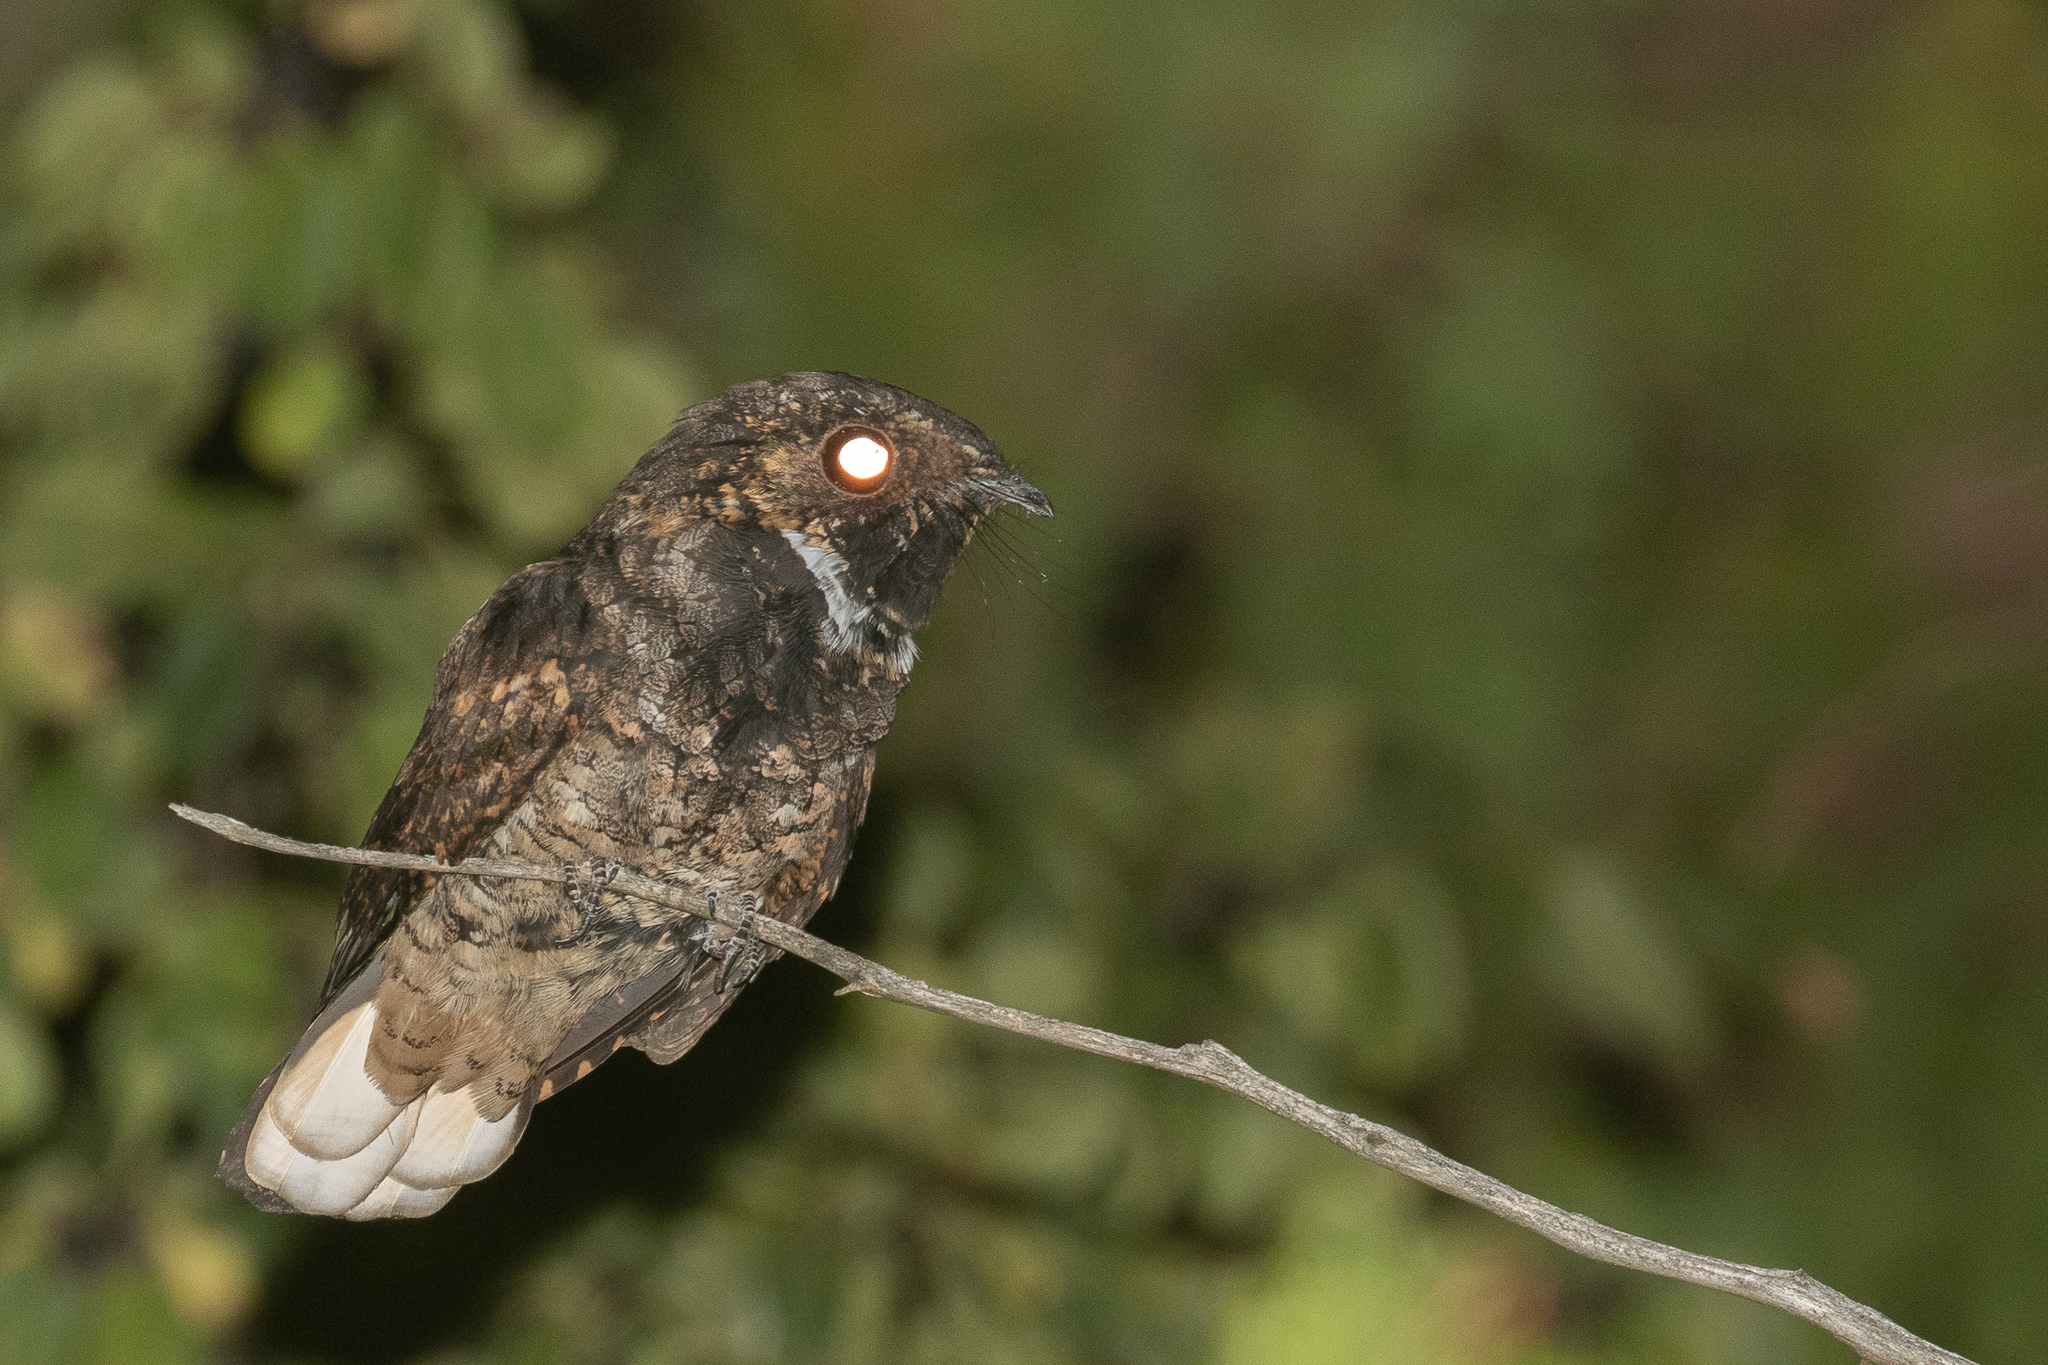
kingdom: Animalia
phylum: Chordata
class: Aves
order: Caprimulgiformes
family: Caprimulgidae
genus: Antrostomus
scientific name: Antrostomus vociferus
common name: Eastern whip-poor-will
